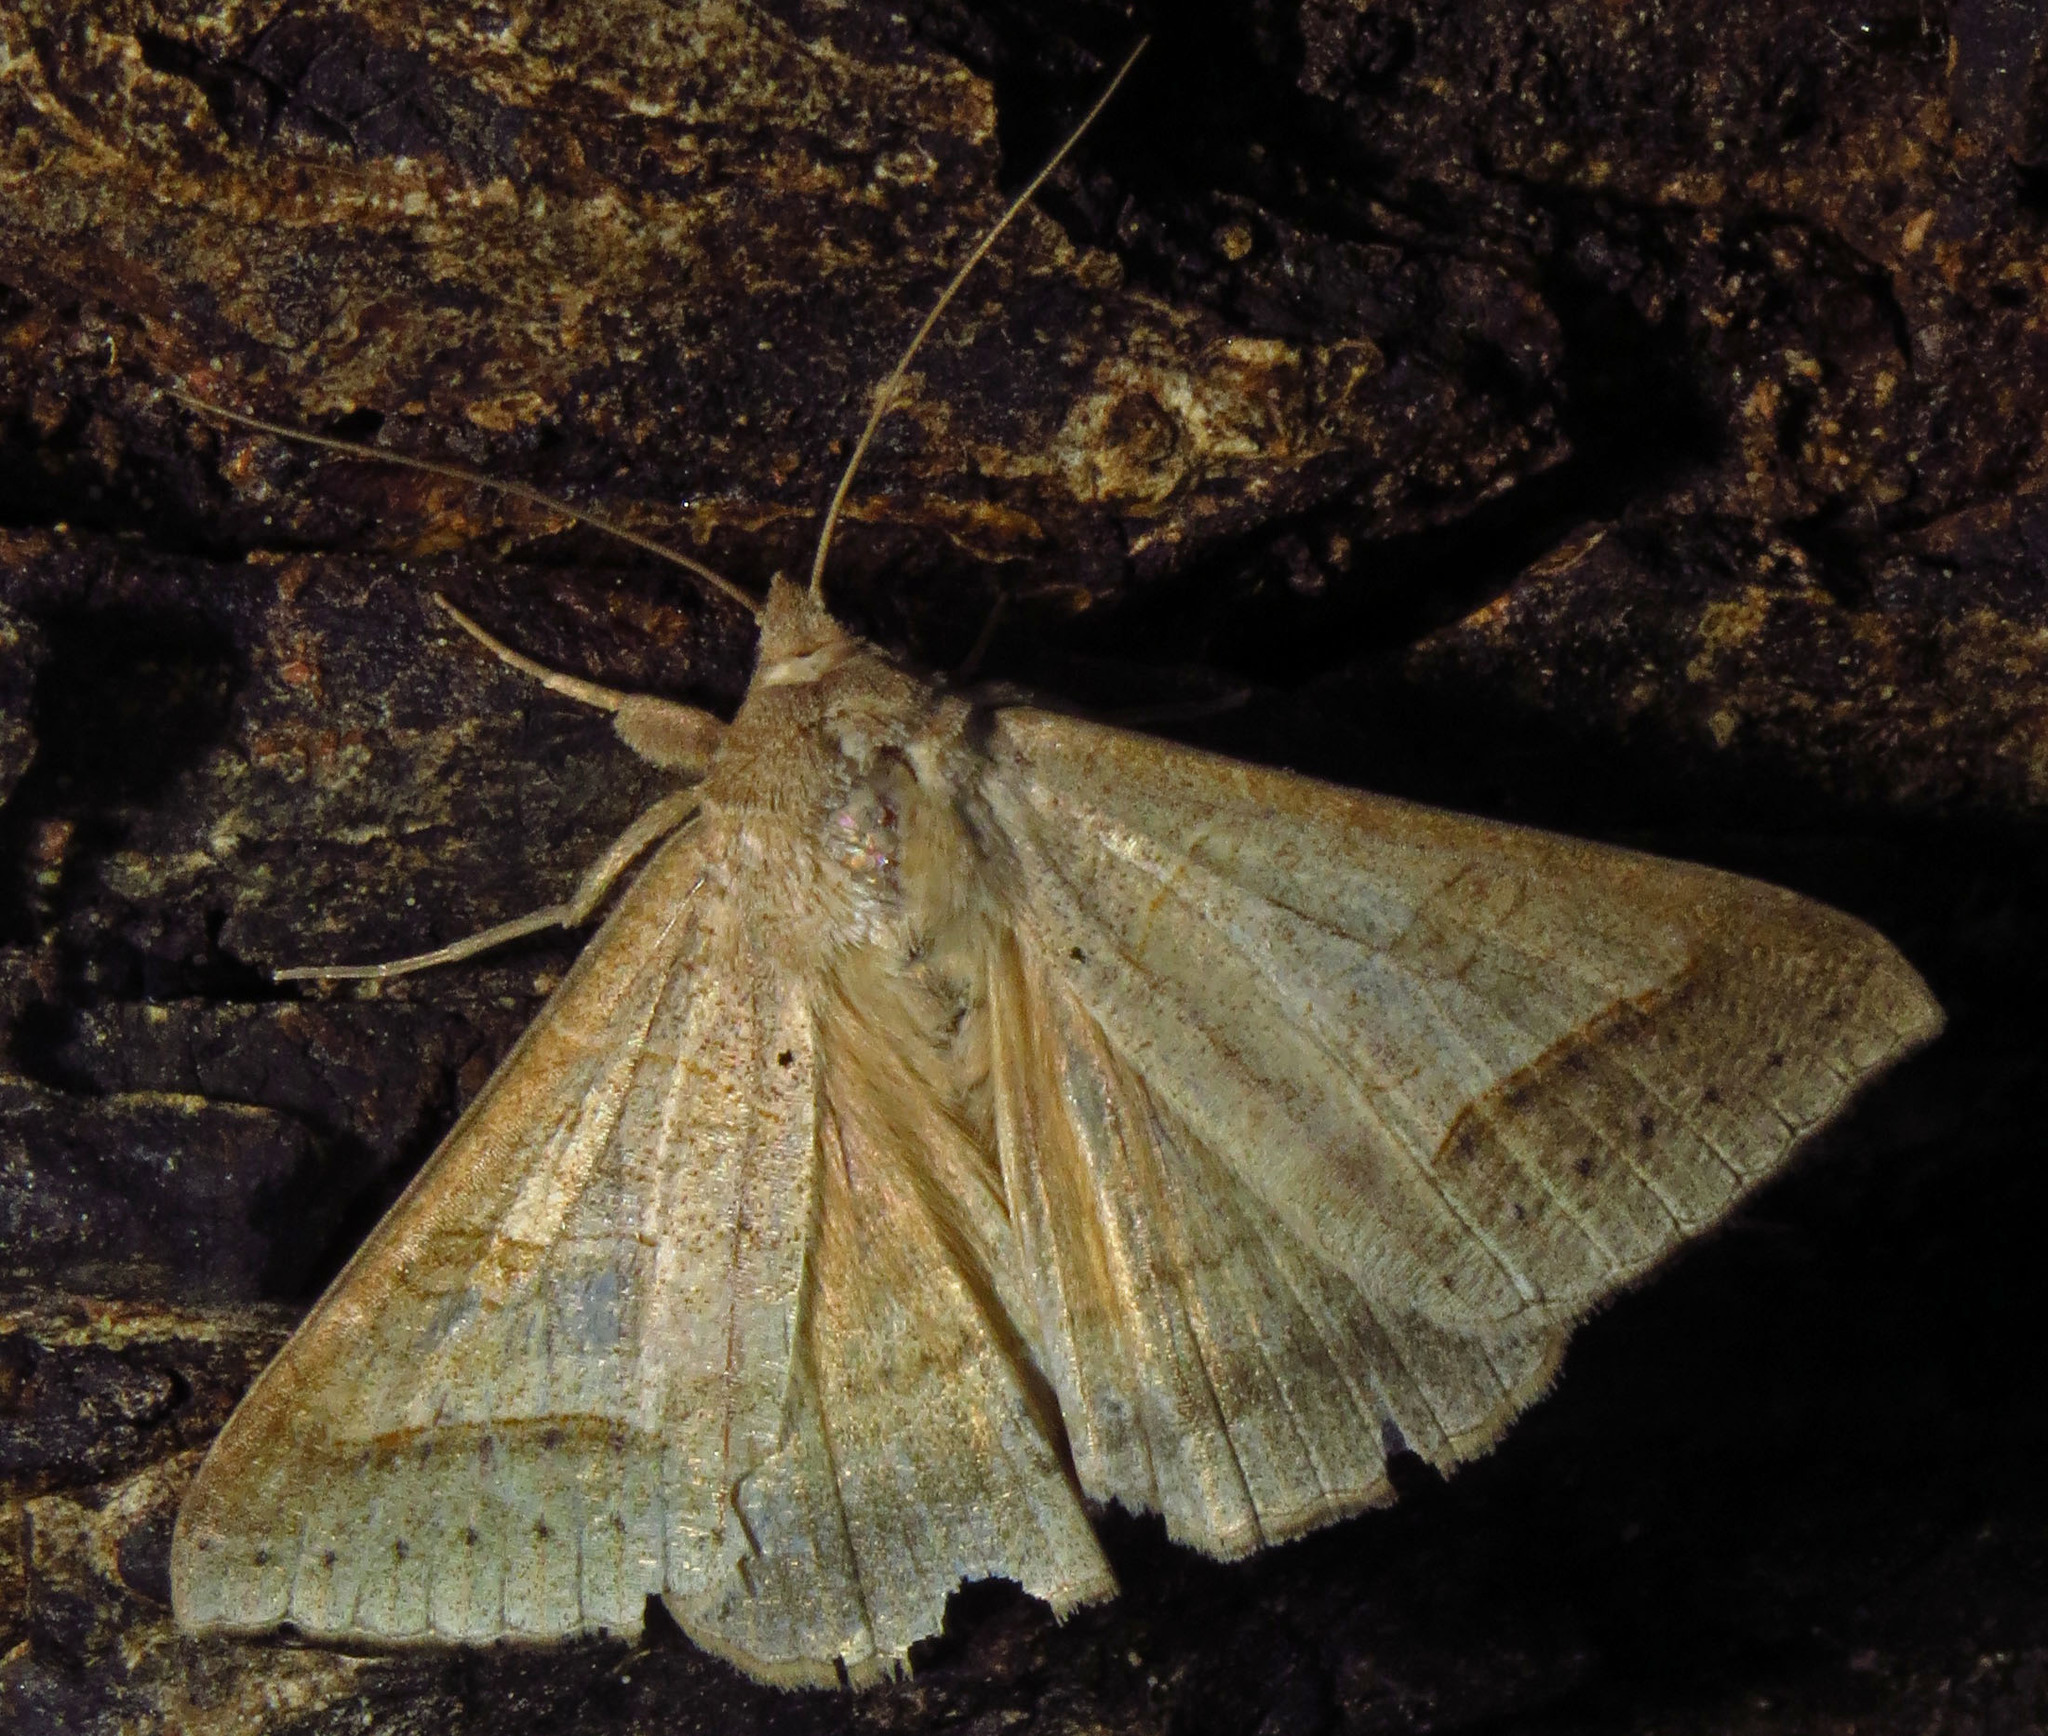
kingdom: Animalia
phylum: Arthropoda
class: Insecta
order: Lepidoptera
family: Erebidae
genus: Mocis
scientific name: Mocis marcida
